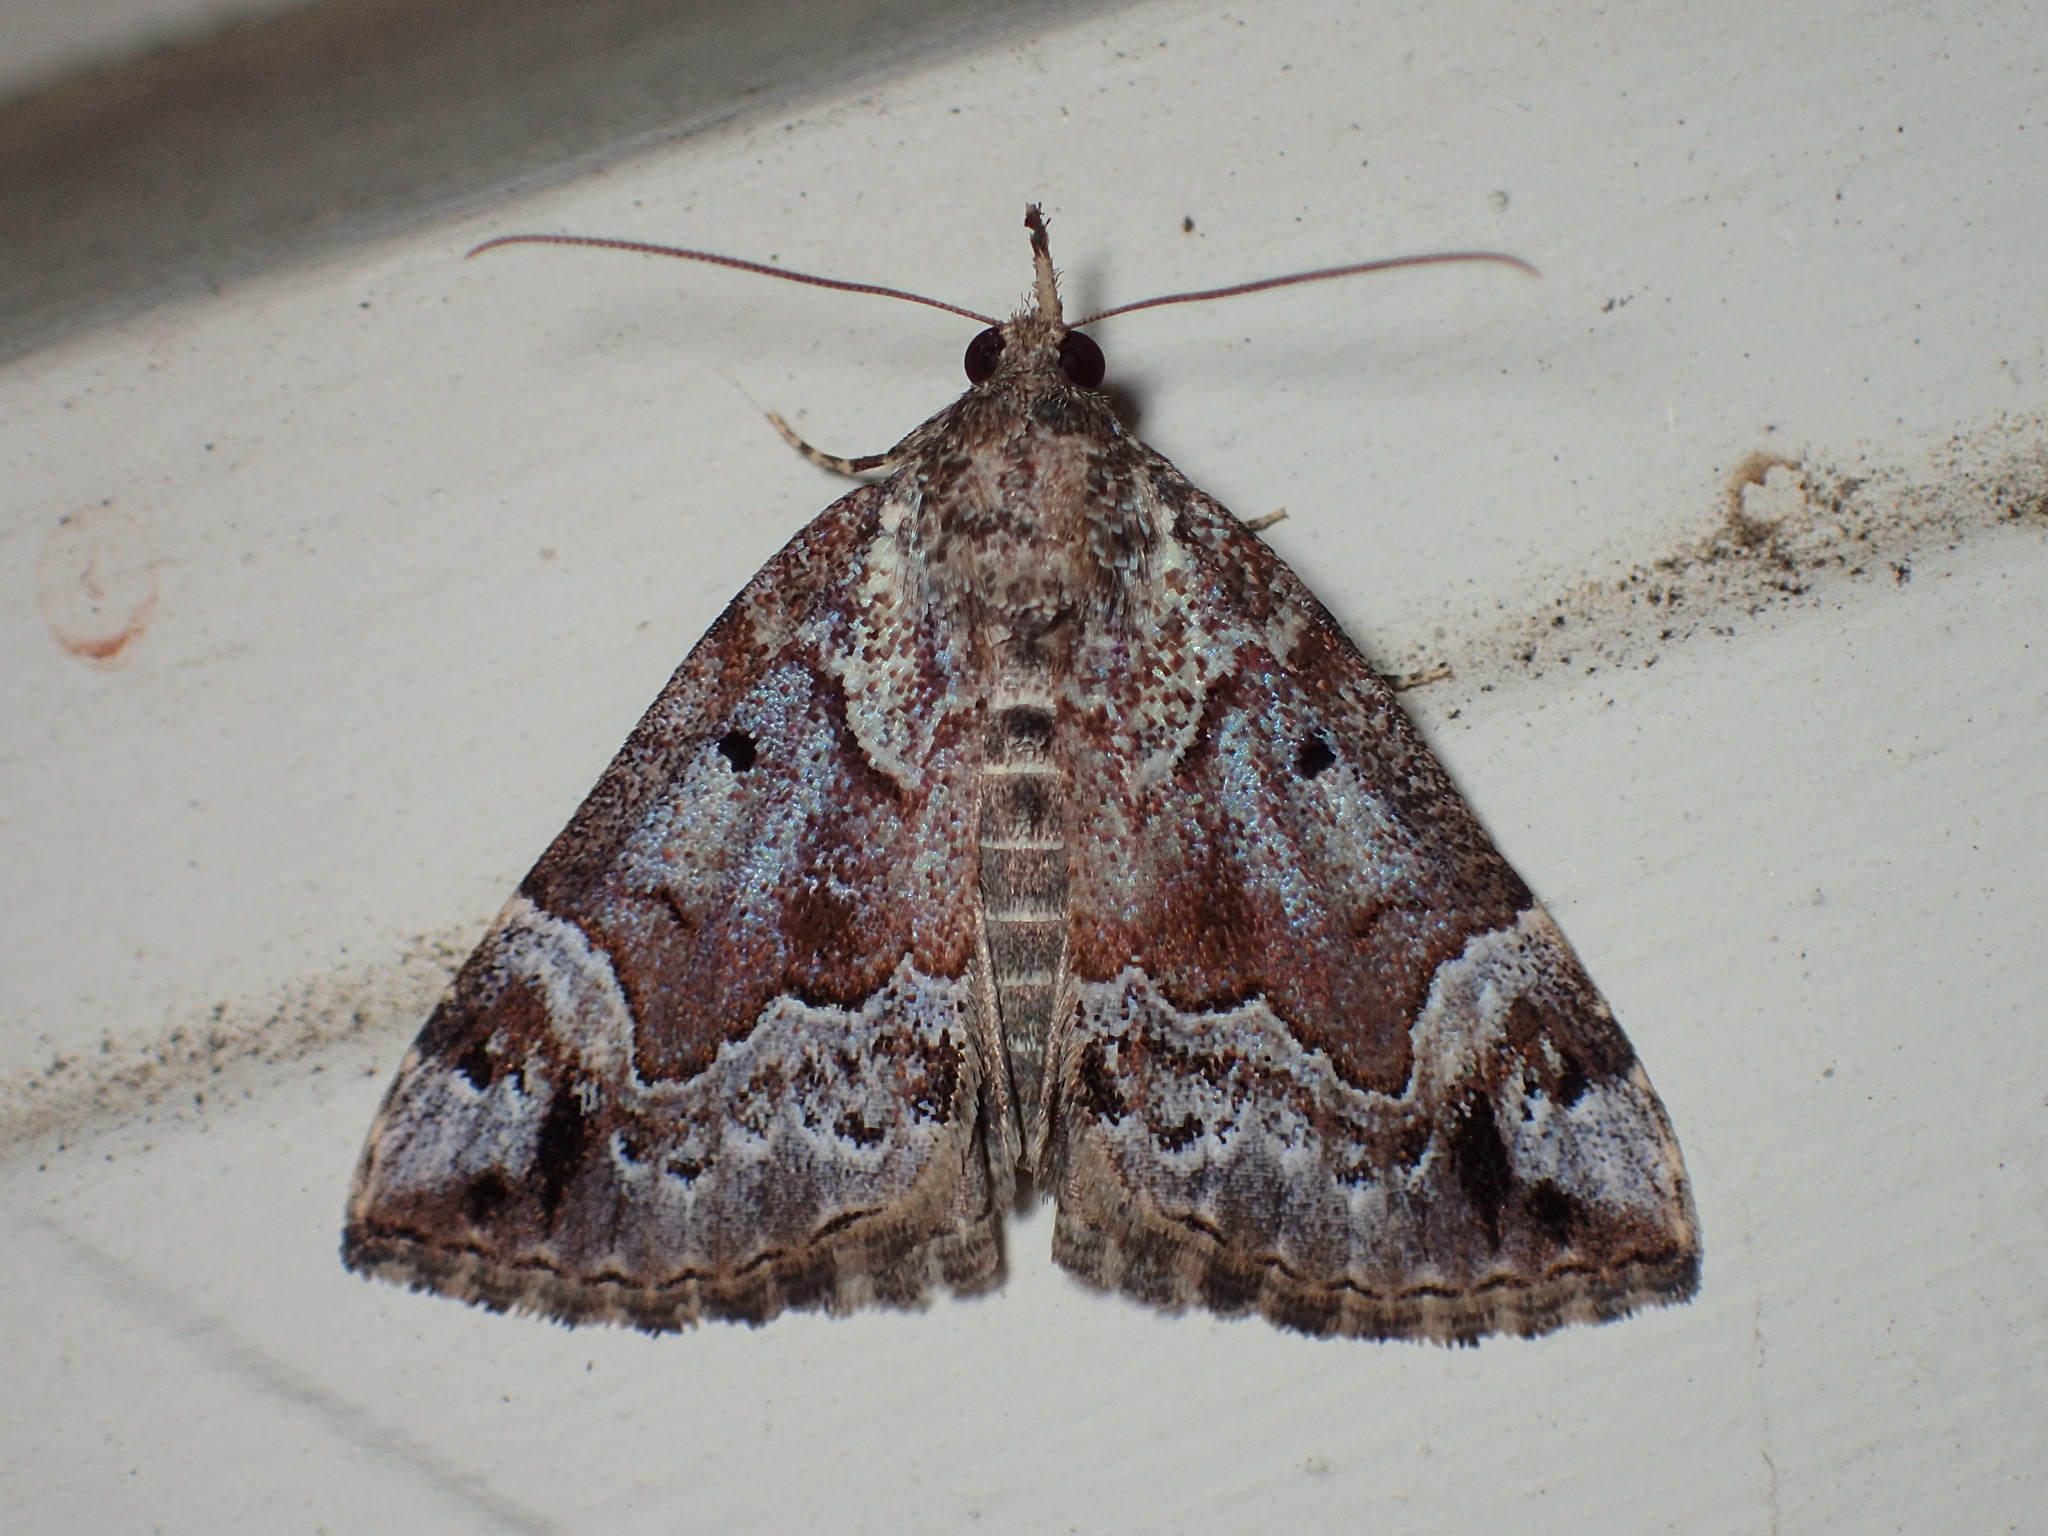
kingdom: Animalia
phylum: Arthropoda
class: Insecta
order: Lepidoptera
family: Erebidae
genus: Hypena
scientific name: Hypena palparia
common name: Mottled bomolocha moth
